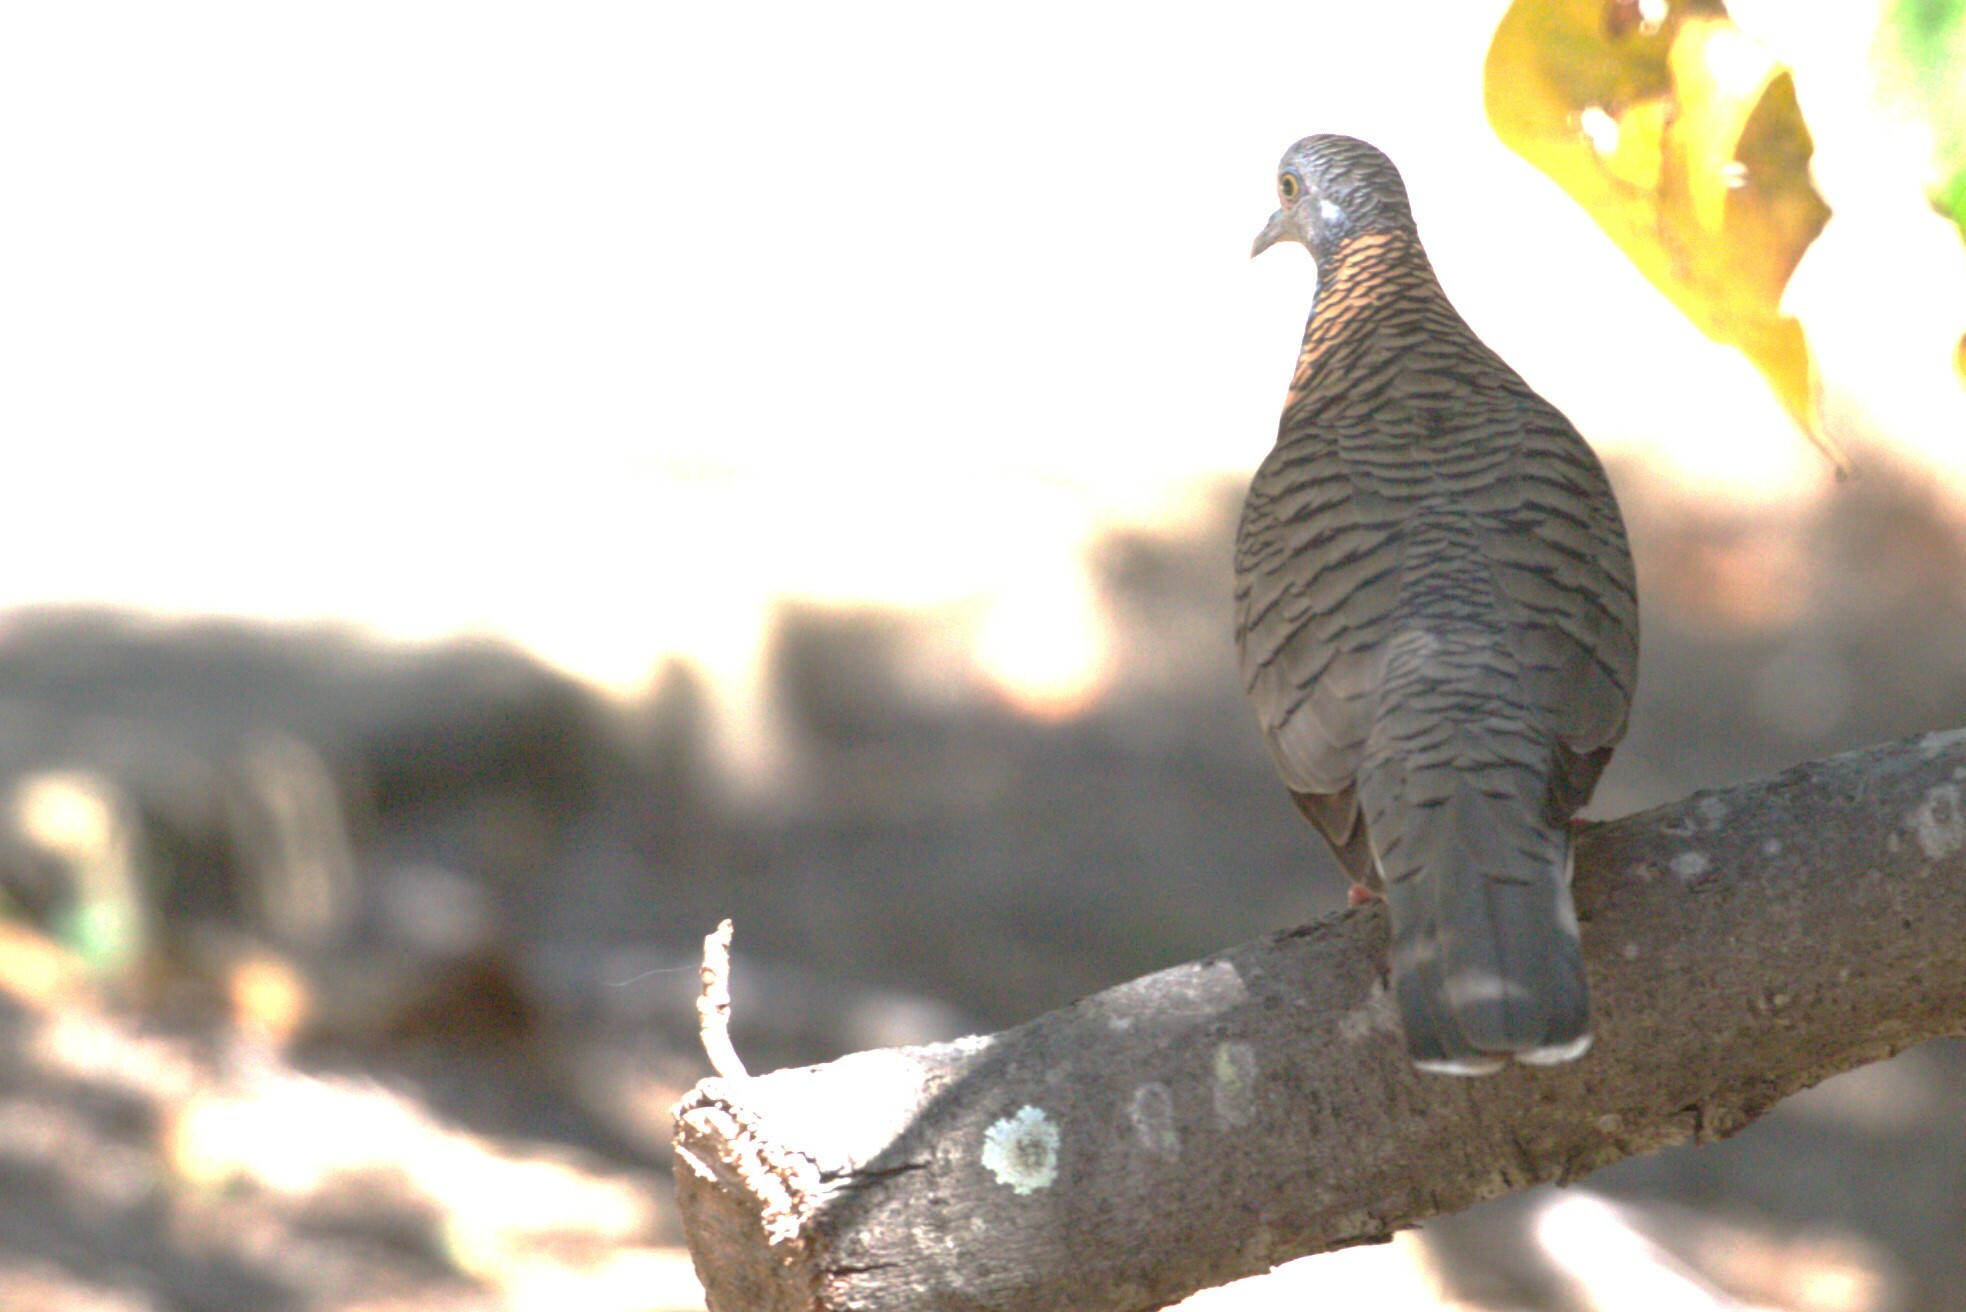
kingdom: Animalia
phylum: Chordata
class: Aves
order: Columbiformes
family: Columbidae
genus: Geopelia
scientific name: Geopelia humeralis
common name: Bar-shouldered dove
